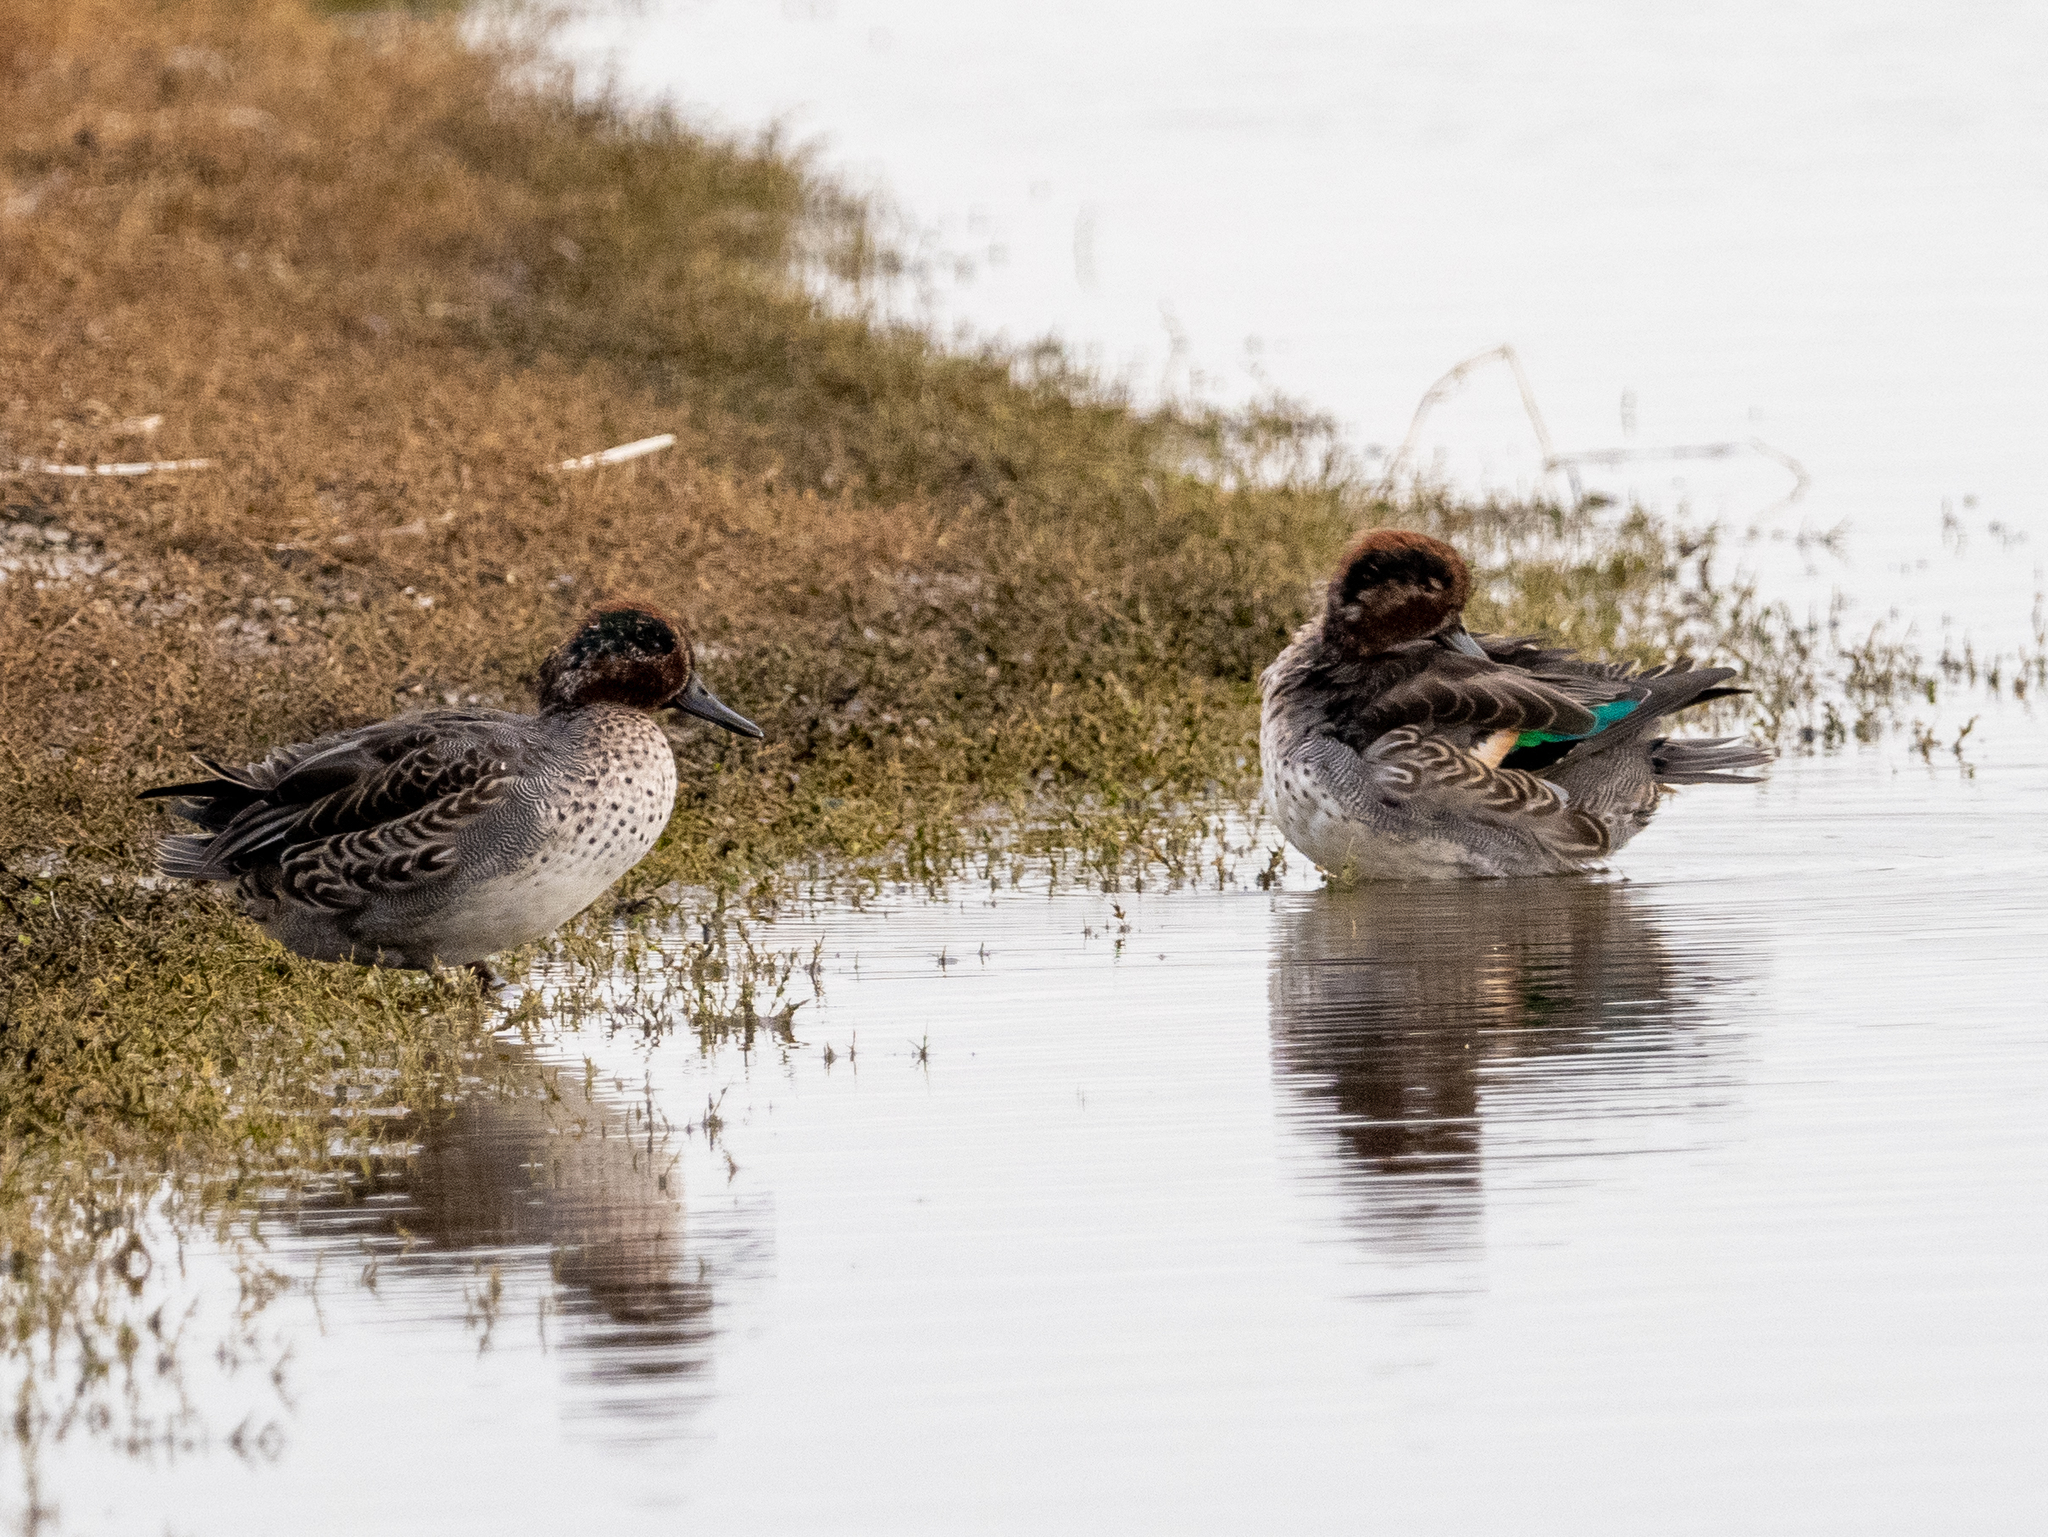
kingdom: Animalia
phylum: Chordata
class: Aves
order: Anseriformes
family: Anatidae
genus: Anas
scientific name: Anas crecca
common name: Eurasian teal
